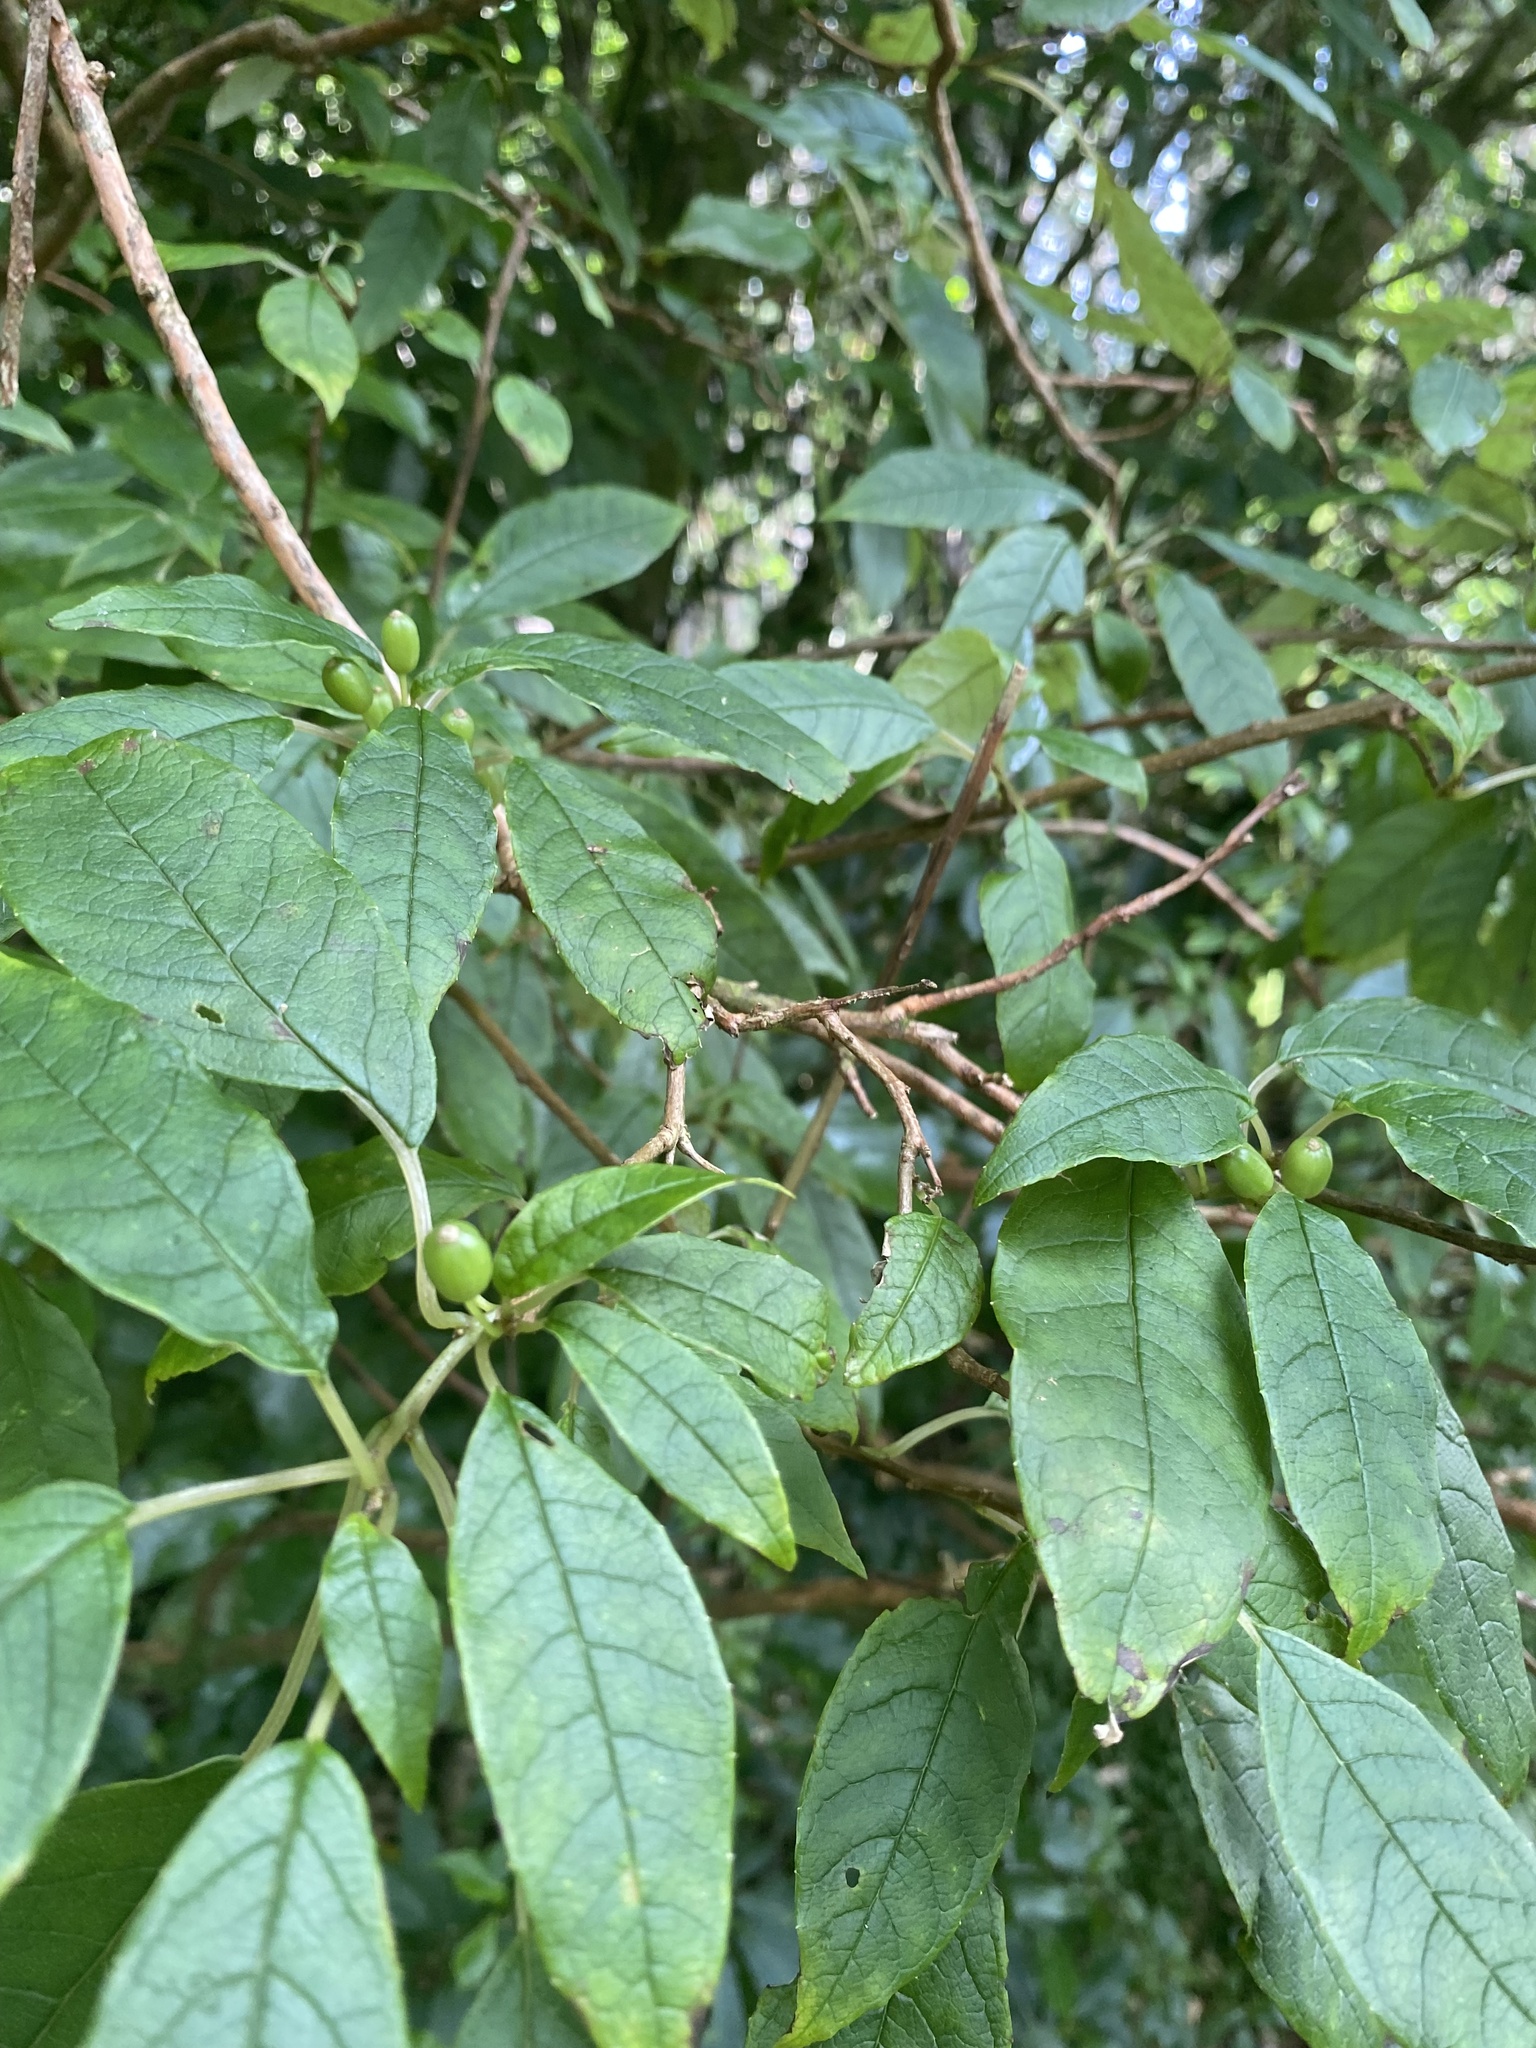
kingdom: Plantae
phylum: Tracheophyta
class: Magnoliopsida
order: Myrtales
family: Onagraceae
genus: Fuchsia
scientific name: Fuchsia excorticata
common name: Tree fuchsia
